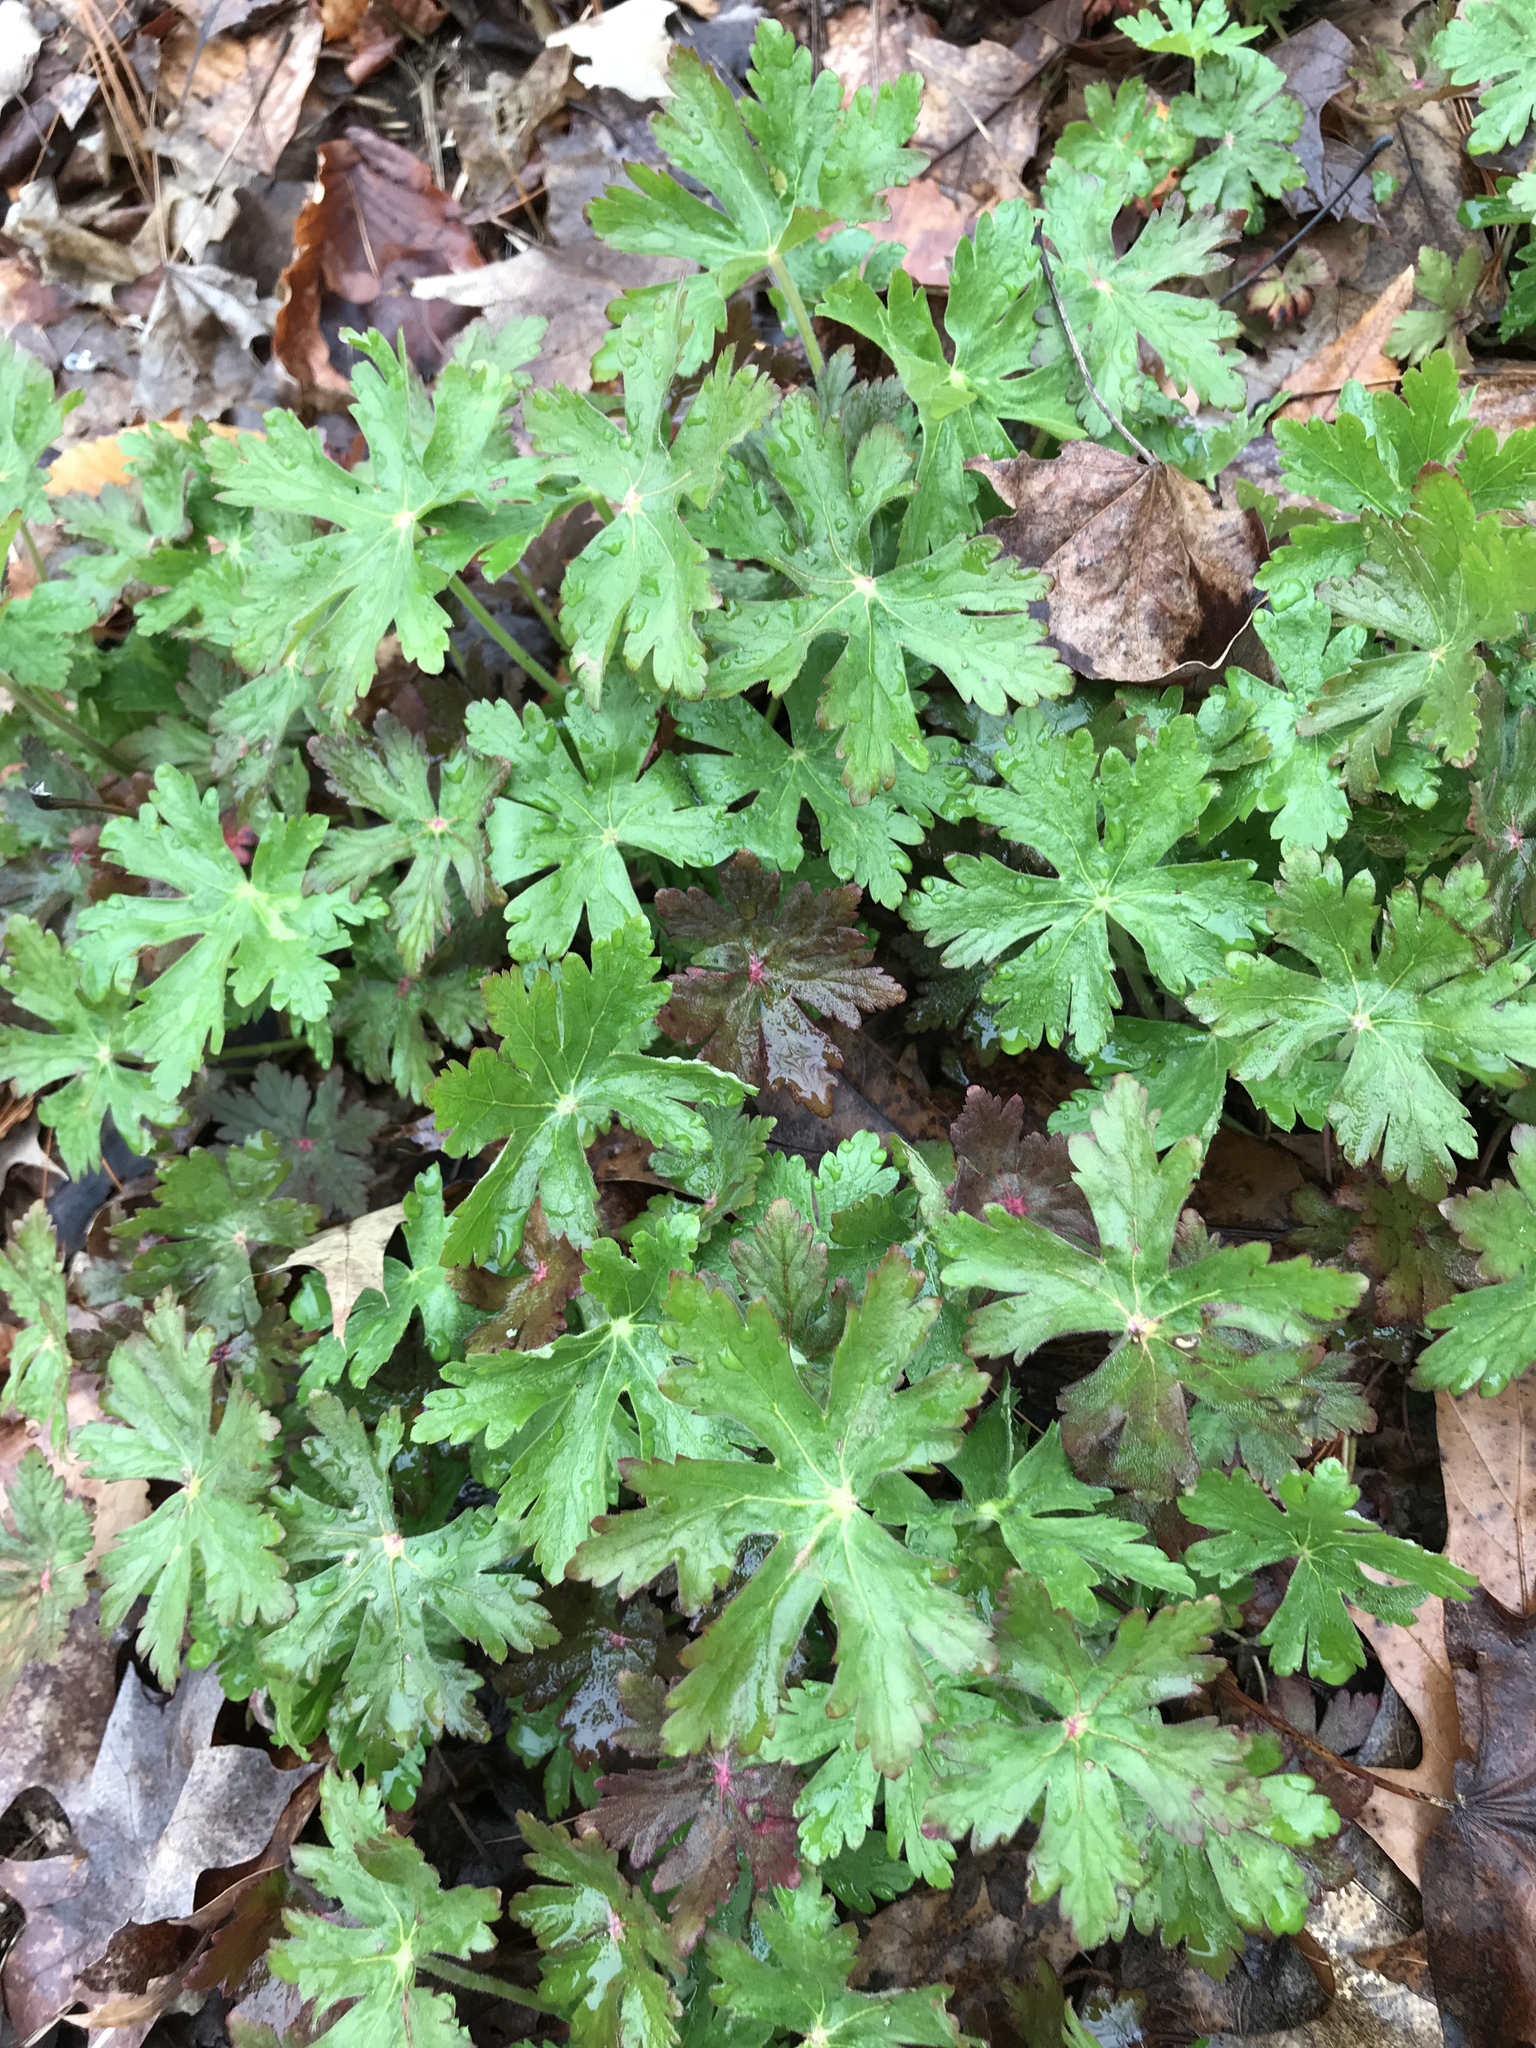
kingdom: Plantae
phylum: Tracheophyta
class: Magnoliopsida
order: Geraniales
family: Geraniaceae
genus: Geranium
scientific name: Geranium maculatum
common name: Spotted geranium
